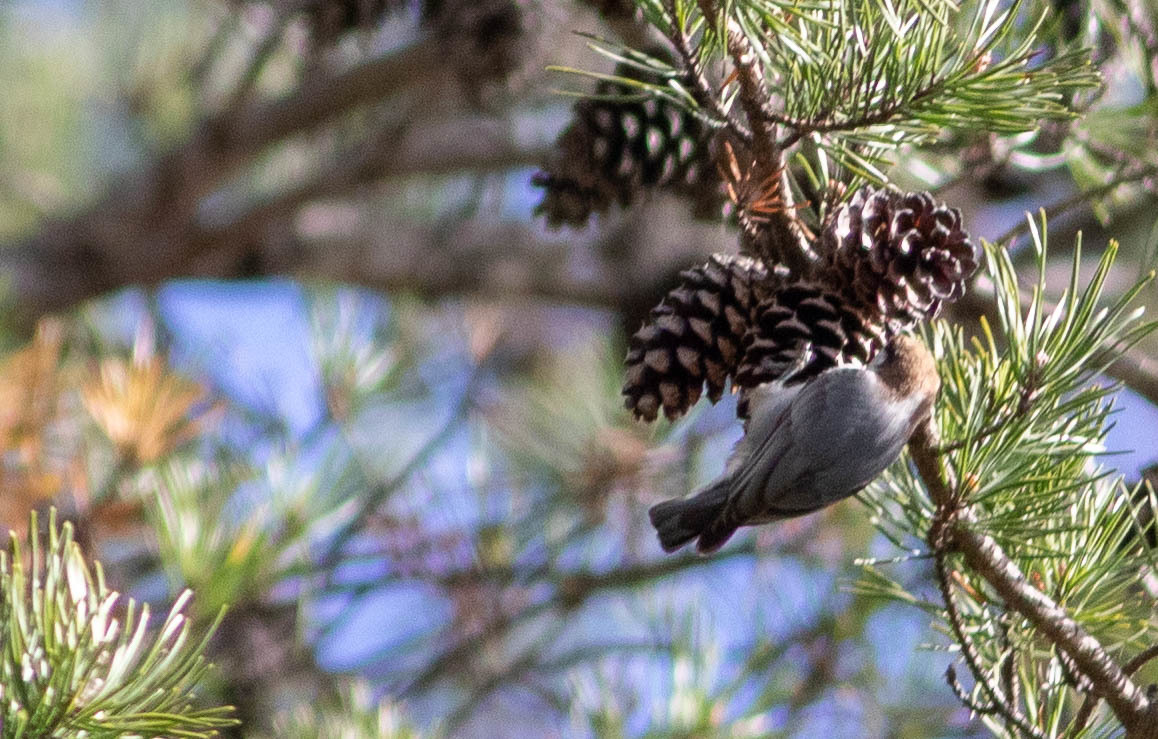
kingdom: Animalia
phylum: Chordata
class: Aves
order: Passeriformes
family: Sittidae
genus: Sitta
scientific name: Sitta pusilla
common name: Brown-headed nuthatch
